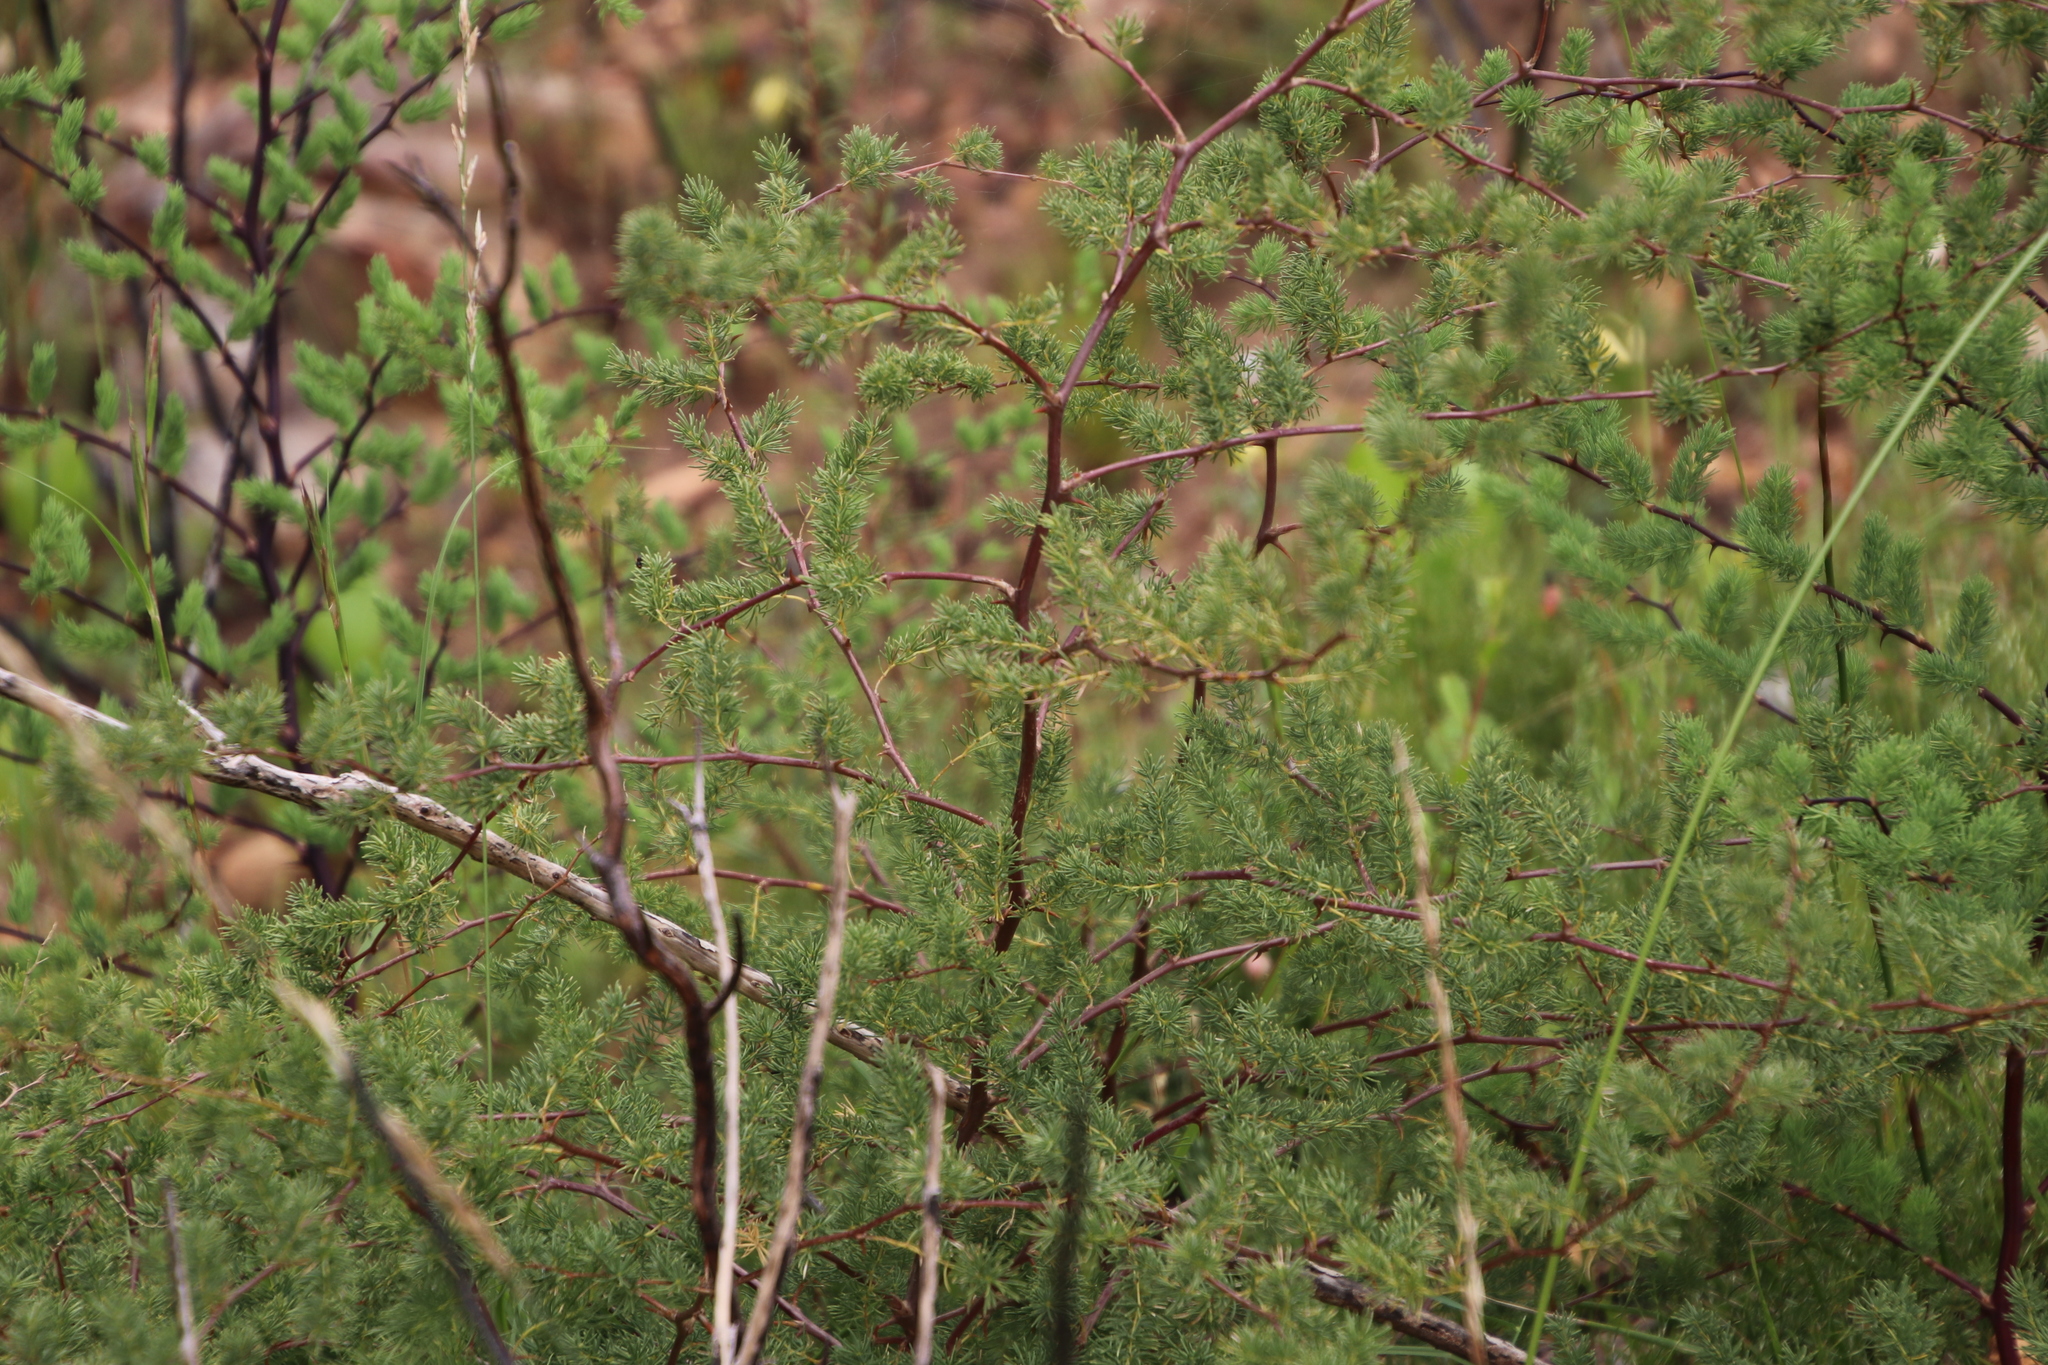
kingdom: Plantae
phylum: Tracheophyta
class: Liliopsida
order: Asparagales
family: Asparagaceae
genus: Asparagus
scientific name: Asparagus rubicundus
